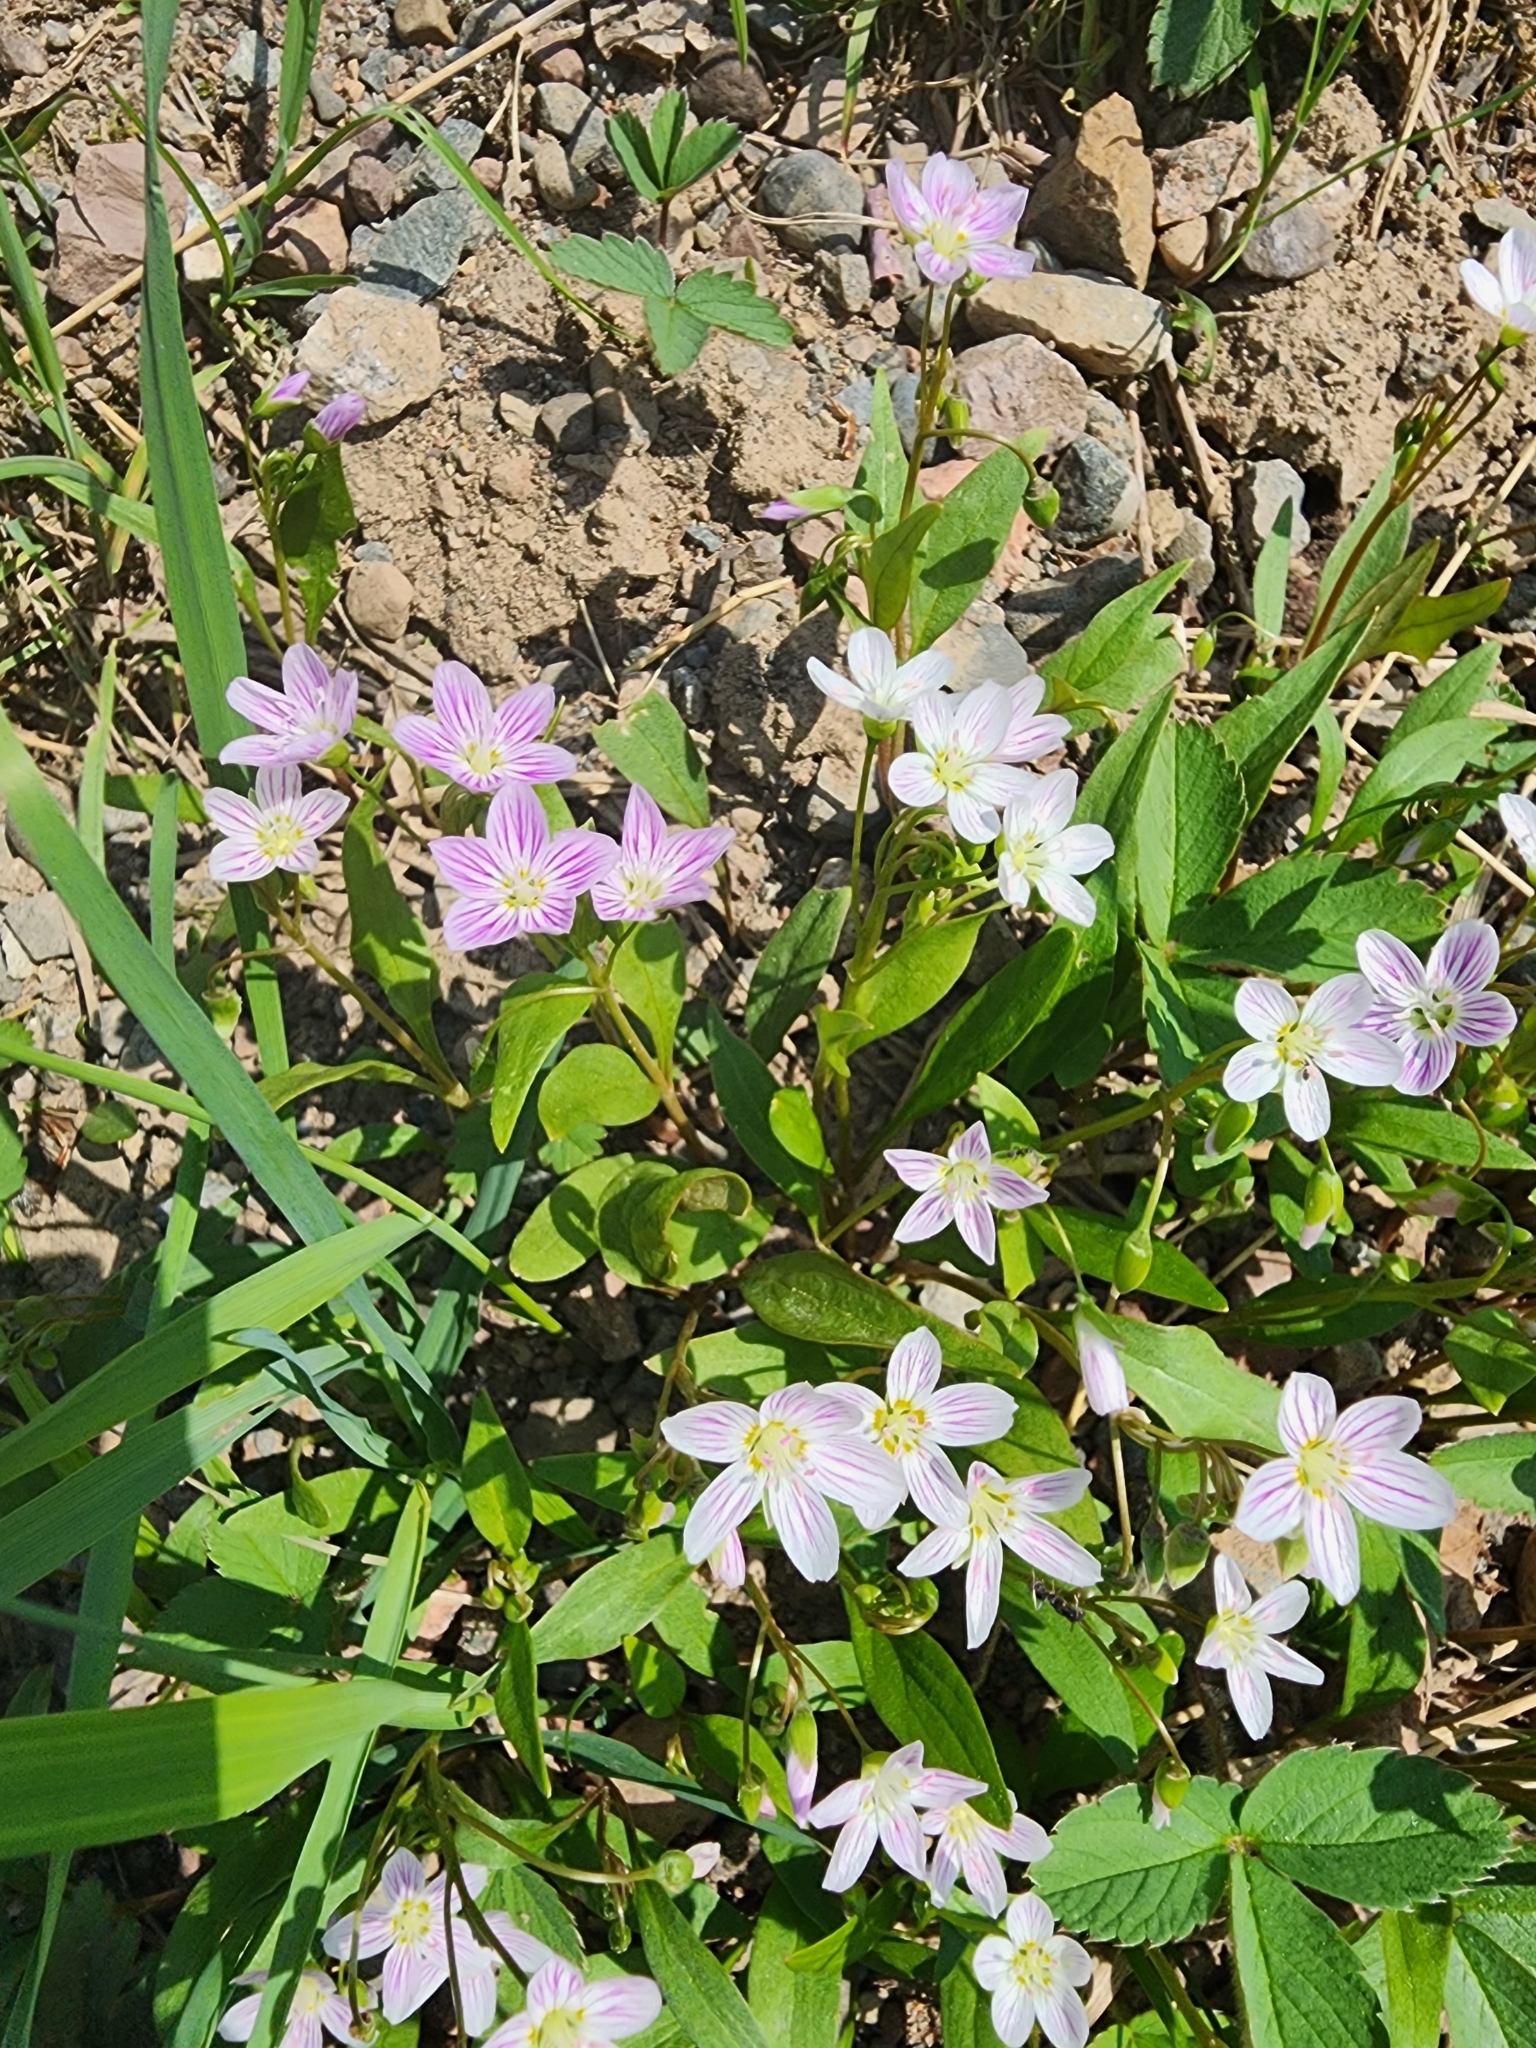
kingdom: Plantae
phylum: Tracheophyta
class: Magnoliopsida
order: Caryophyllales
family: Montiaceae
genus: Claytonia
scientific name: Claytonia caroliniana
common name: Carolina spring beauty
